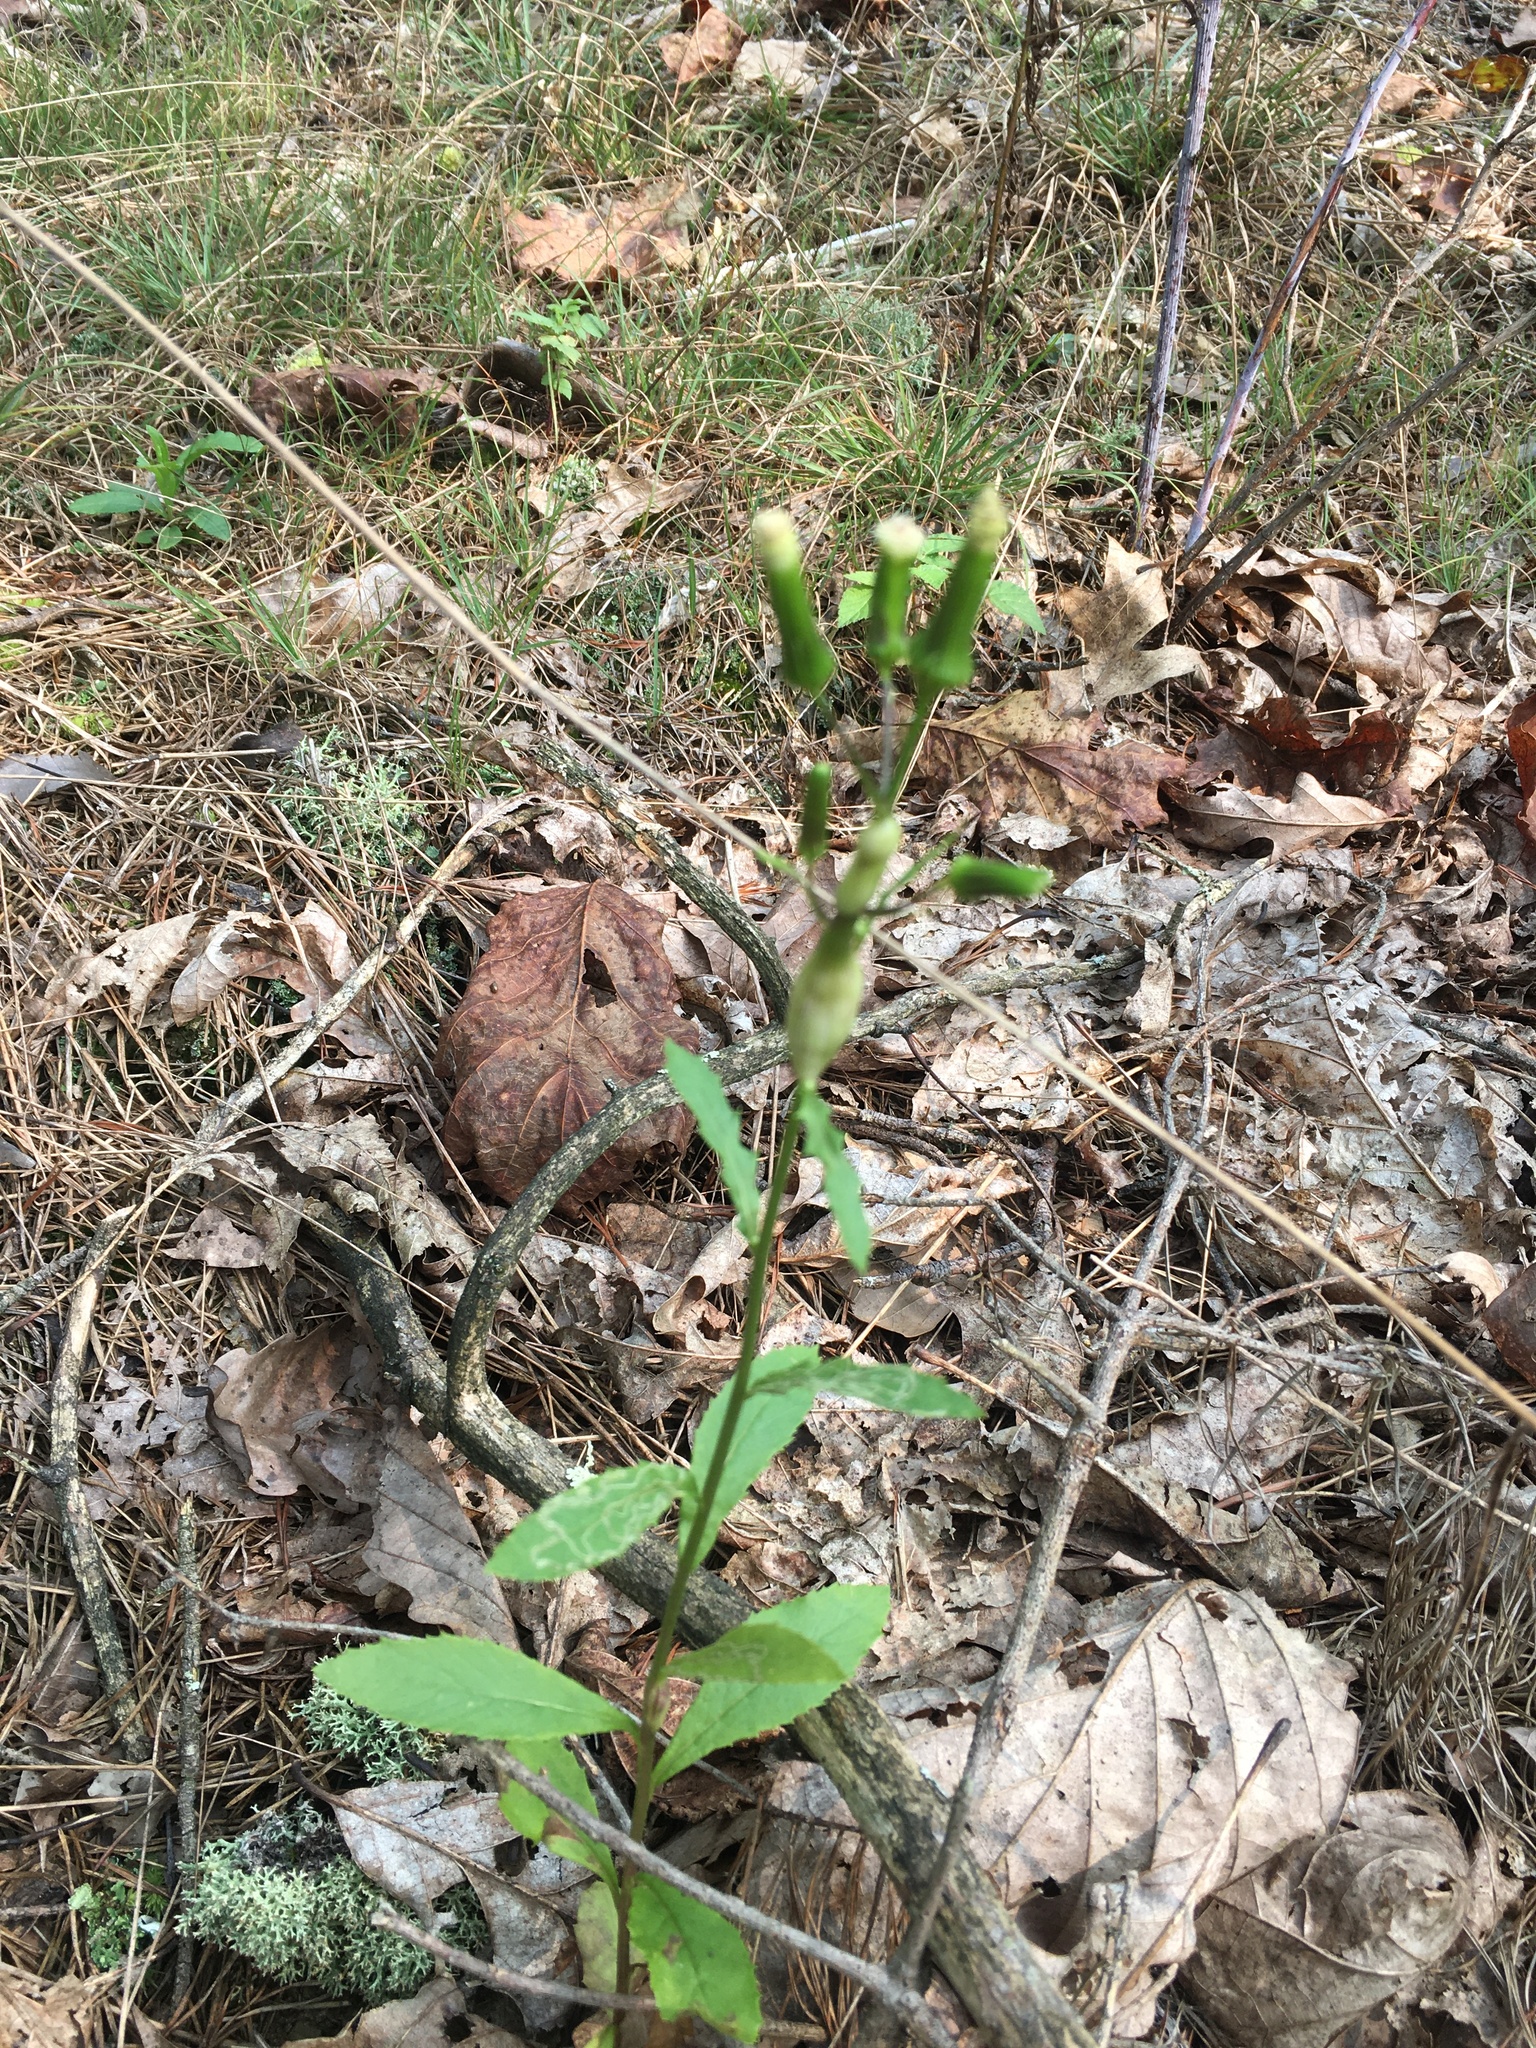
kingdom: Plantae
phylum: Tracheophyta
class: Magnoliopsida
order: Asterales
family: Asteraceae
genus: Erechtites
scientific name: Erechtites hieraciifolius
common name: American burnweed
